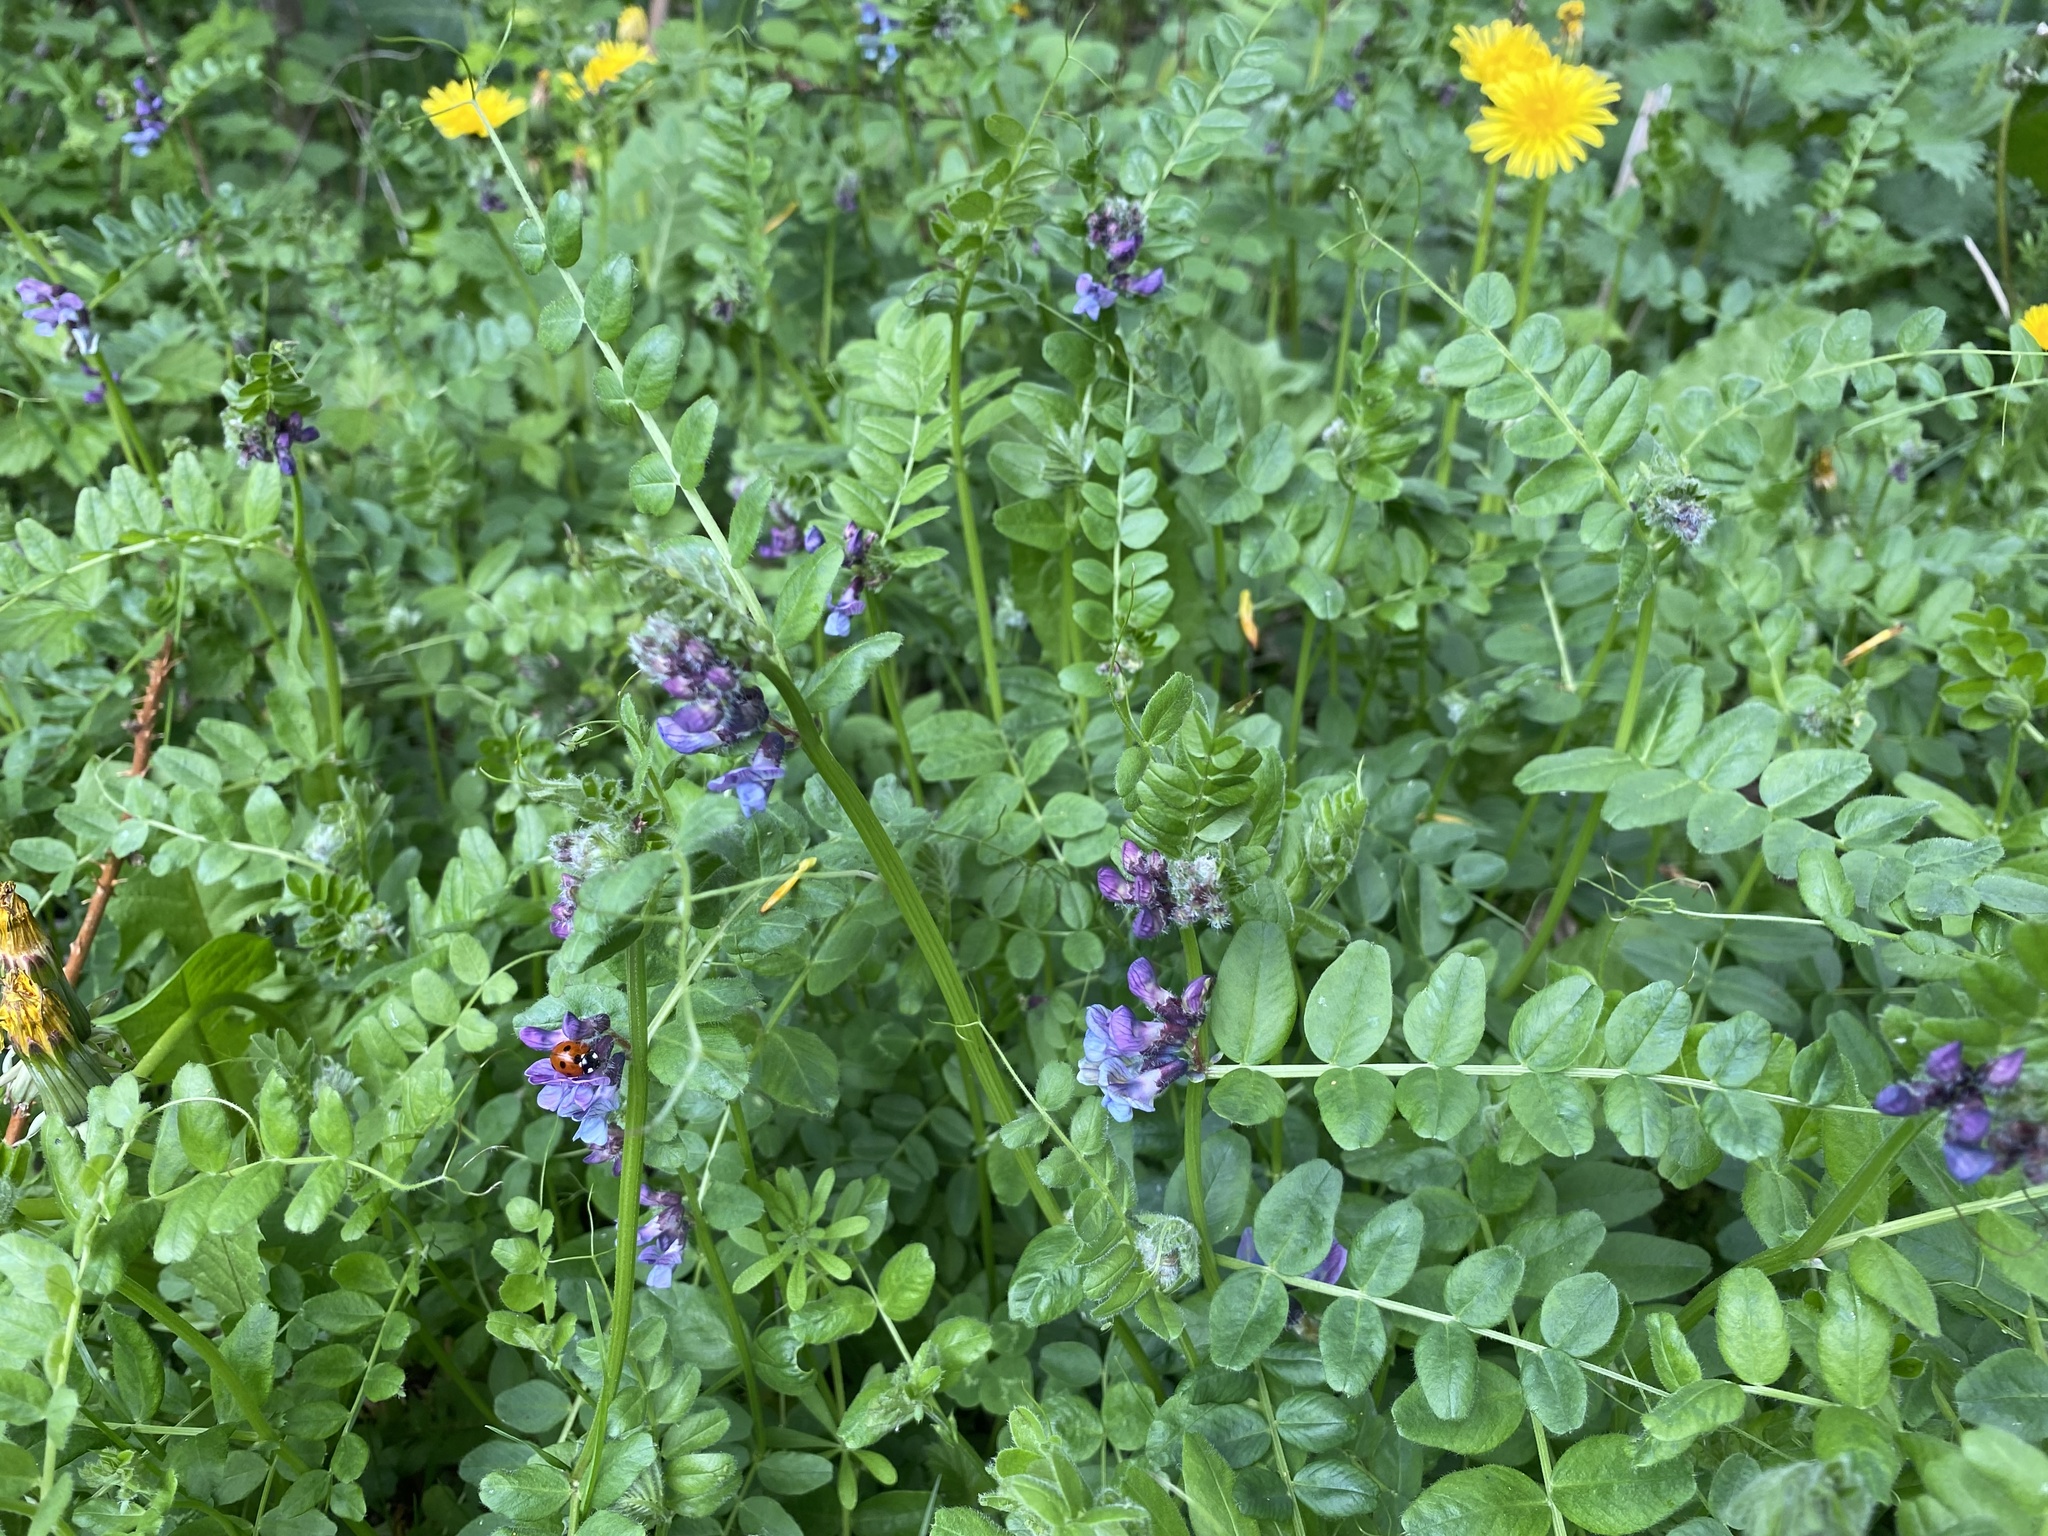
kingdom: Plantae
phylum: Tracheophyta
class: Magnoliopsida
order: Fabales
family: Fabaceae
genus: Vicia
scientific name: Vicia sepium
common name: Bush vetch
